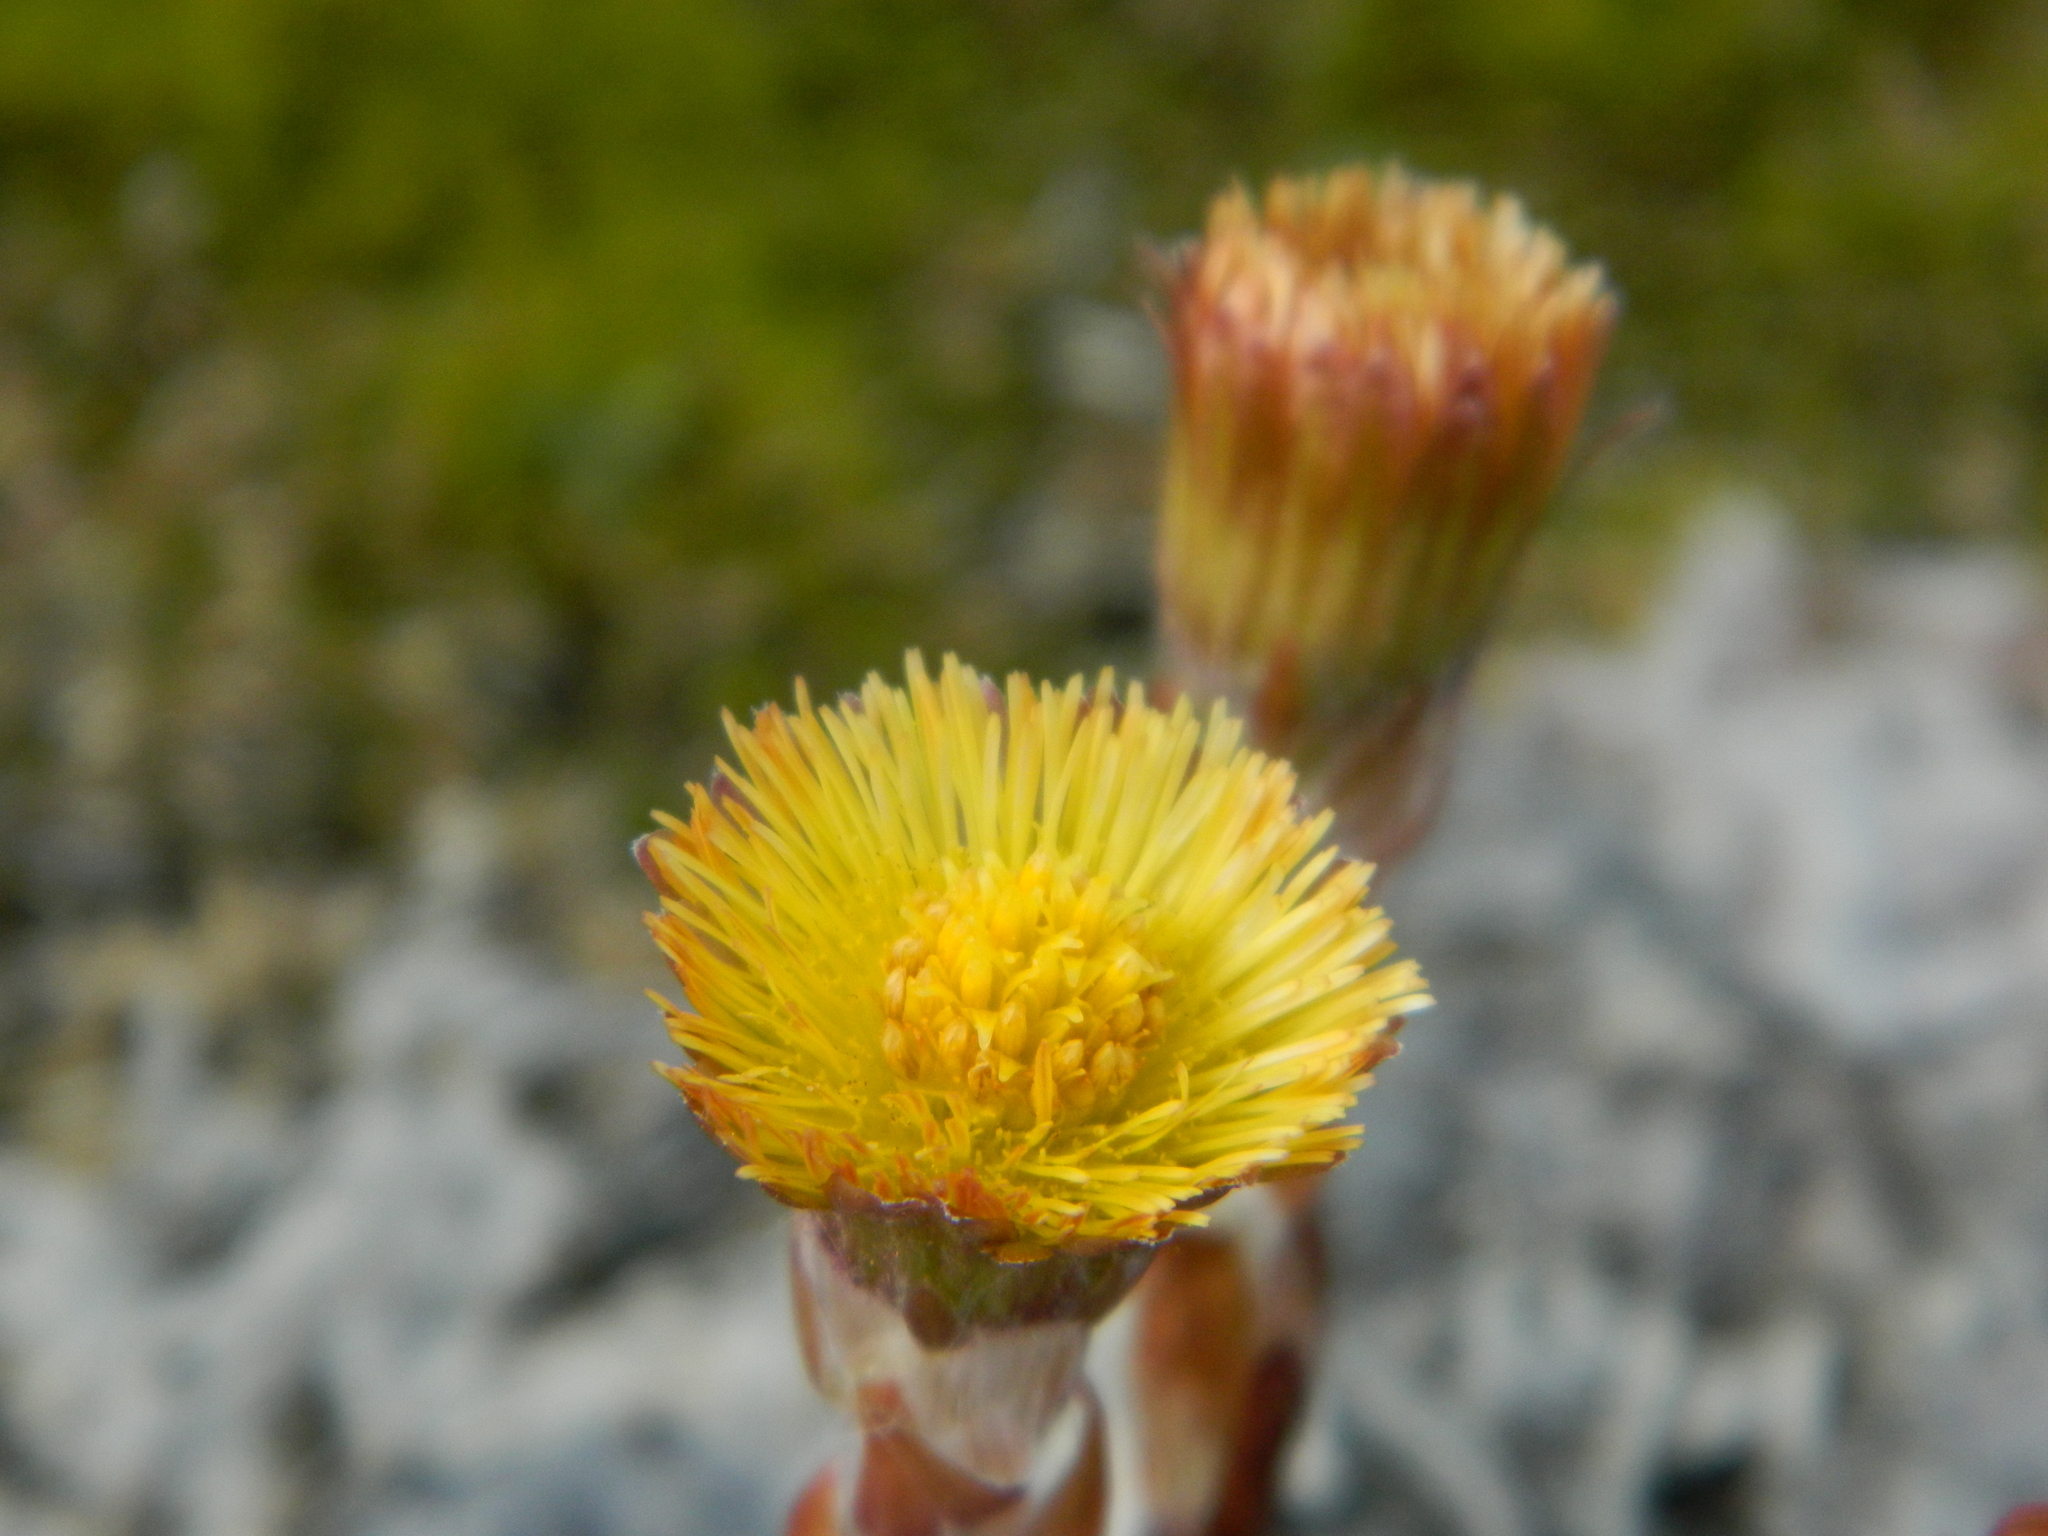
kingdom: Plantae
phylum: Tracheophyta
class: Magnoliopsida
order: Asterales
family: Asteraceae
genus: Tussilago
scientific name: Tussilago farfara
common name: Coltsfoot
